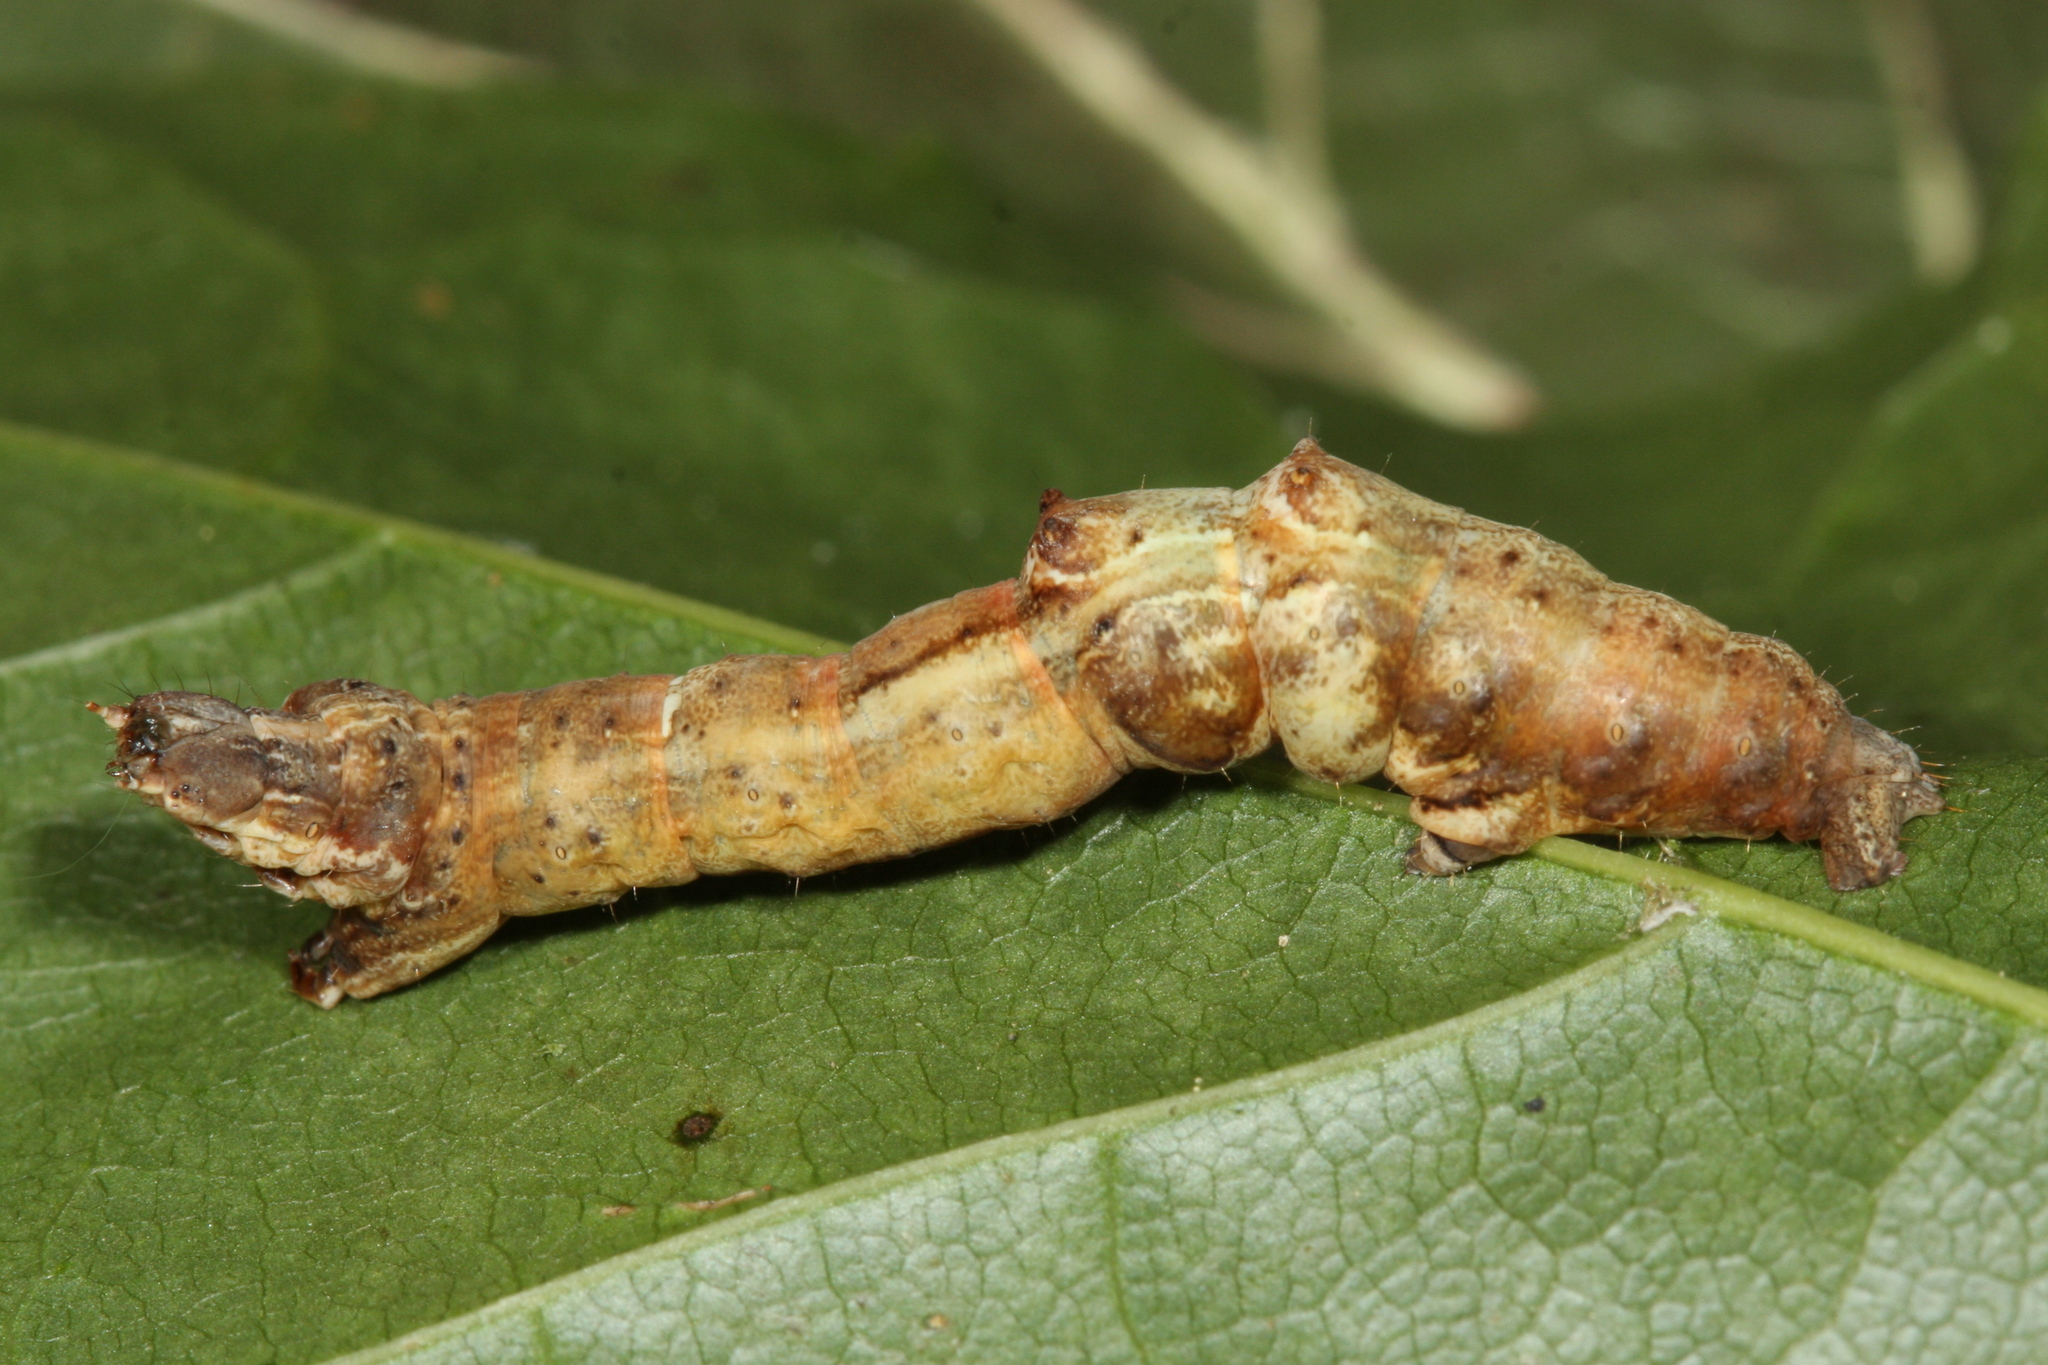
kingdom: Animalia
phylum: Arthropoda
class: Insecta
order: Lepidoptera
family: Geometridae
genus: Selenia
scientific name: Selenia dentaria
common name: Early thorn
